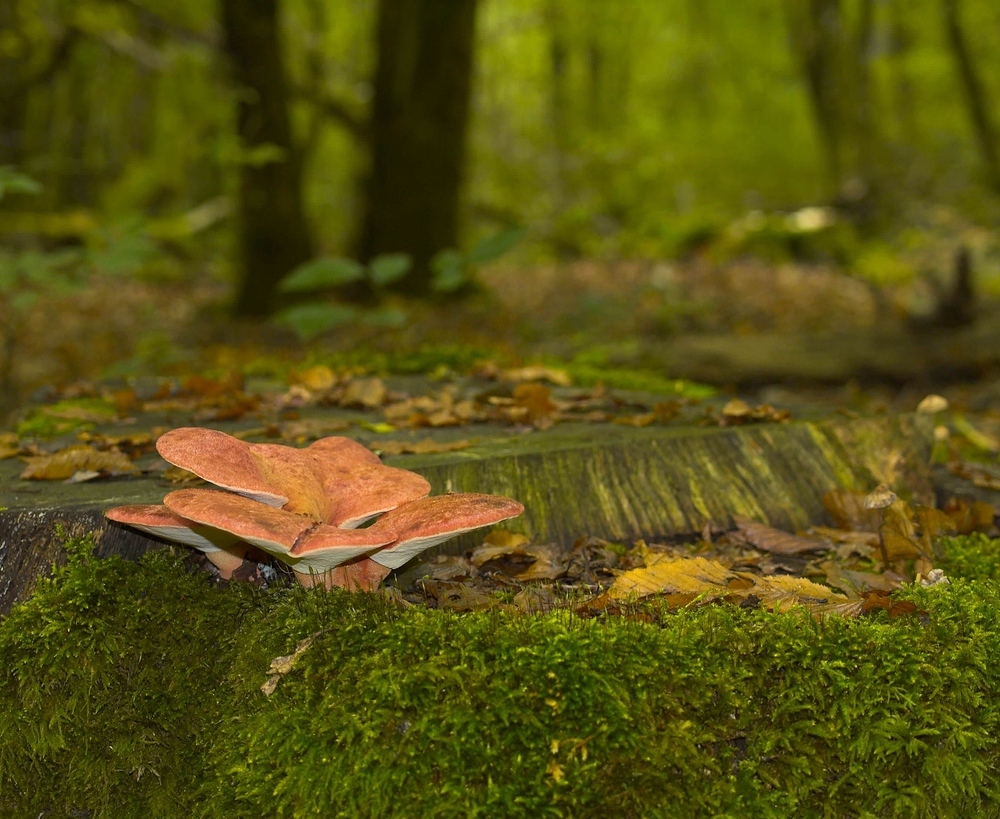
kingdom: Fungi
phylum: Basidiomycota
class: Agaricomycetes
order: Agaricales
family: Fistulinaceae
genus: Fistulina
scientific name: Fistulina hepatica
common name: Beef-steak fungus
